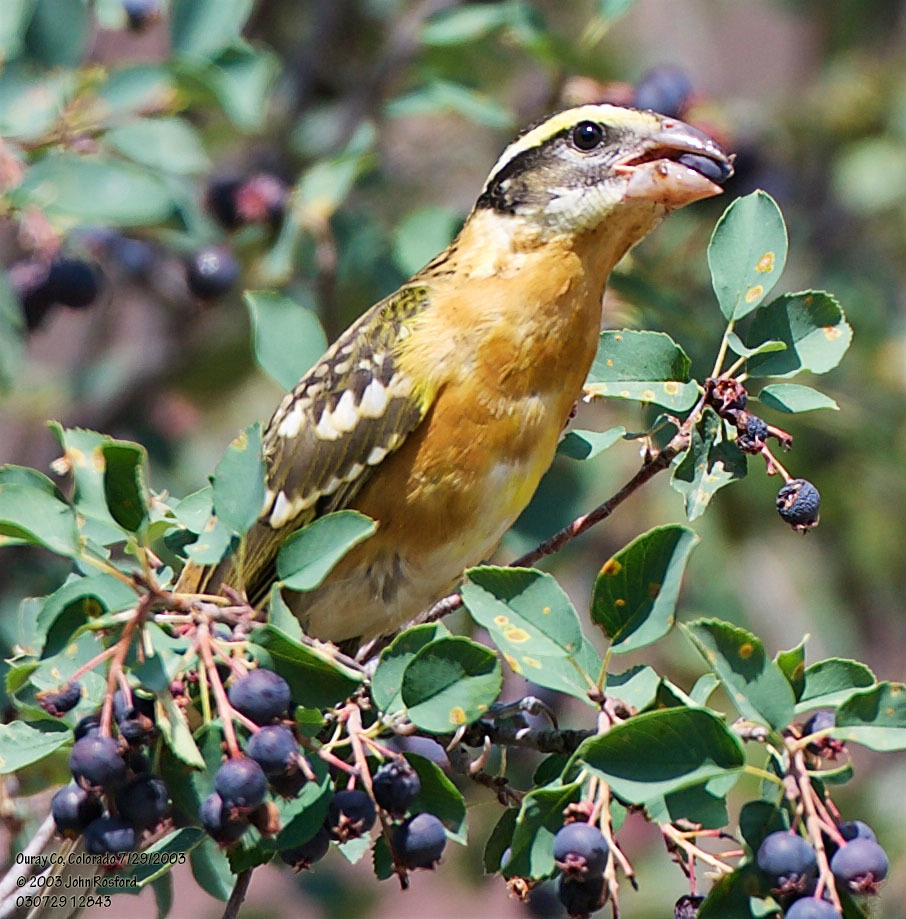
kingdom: Animalia
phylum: Chordata
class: Aves
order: Passeriformes
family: Cardinalidae
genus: Pheucticus
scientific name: Pheucticus melanocephalus
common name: Black-headed grosbeak
